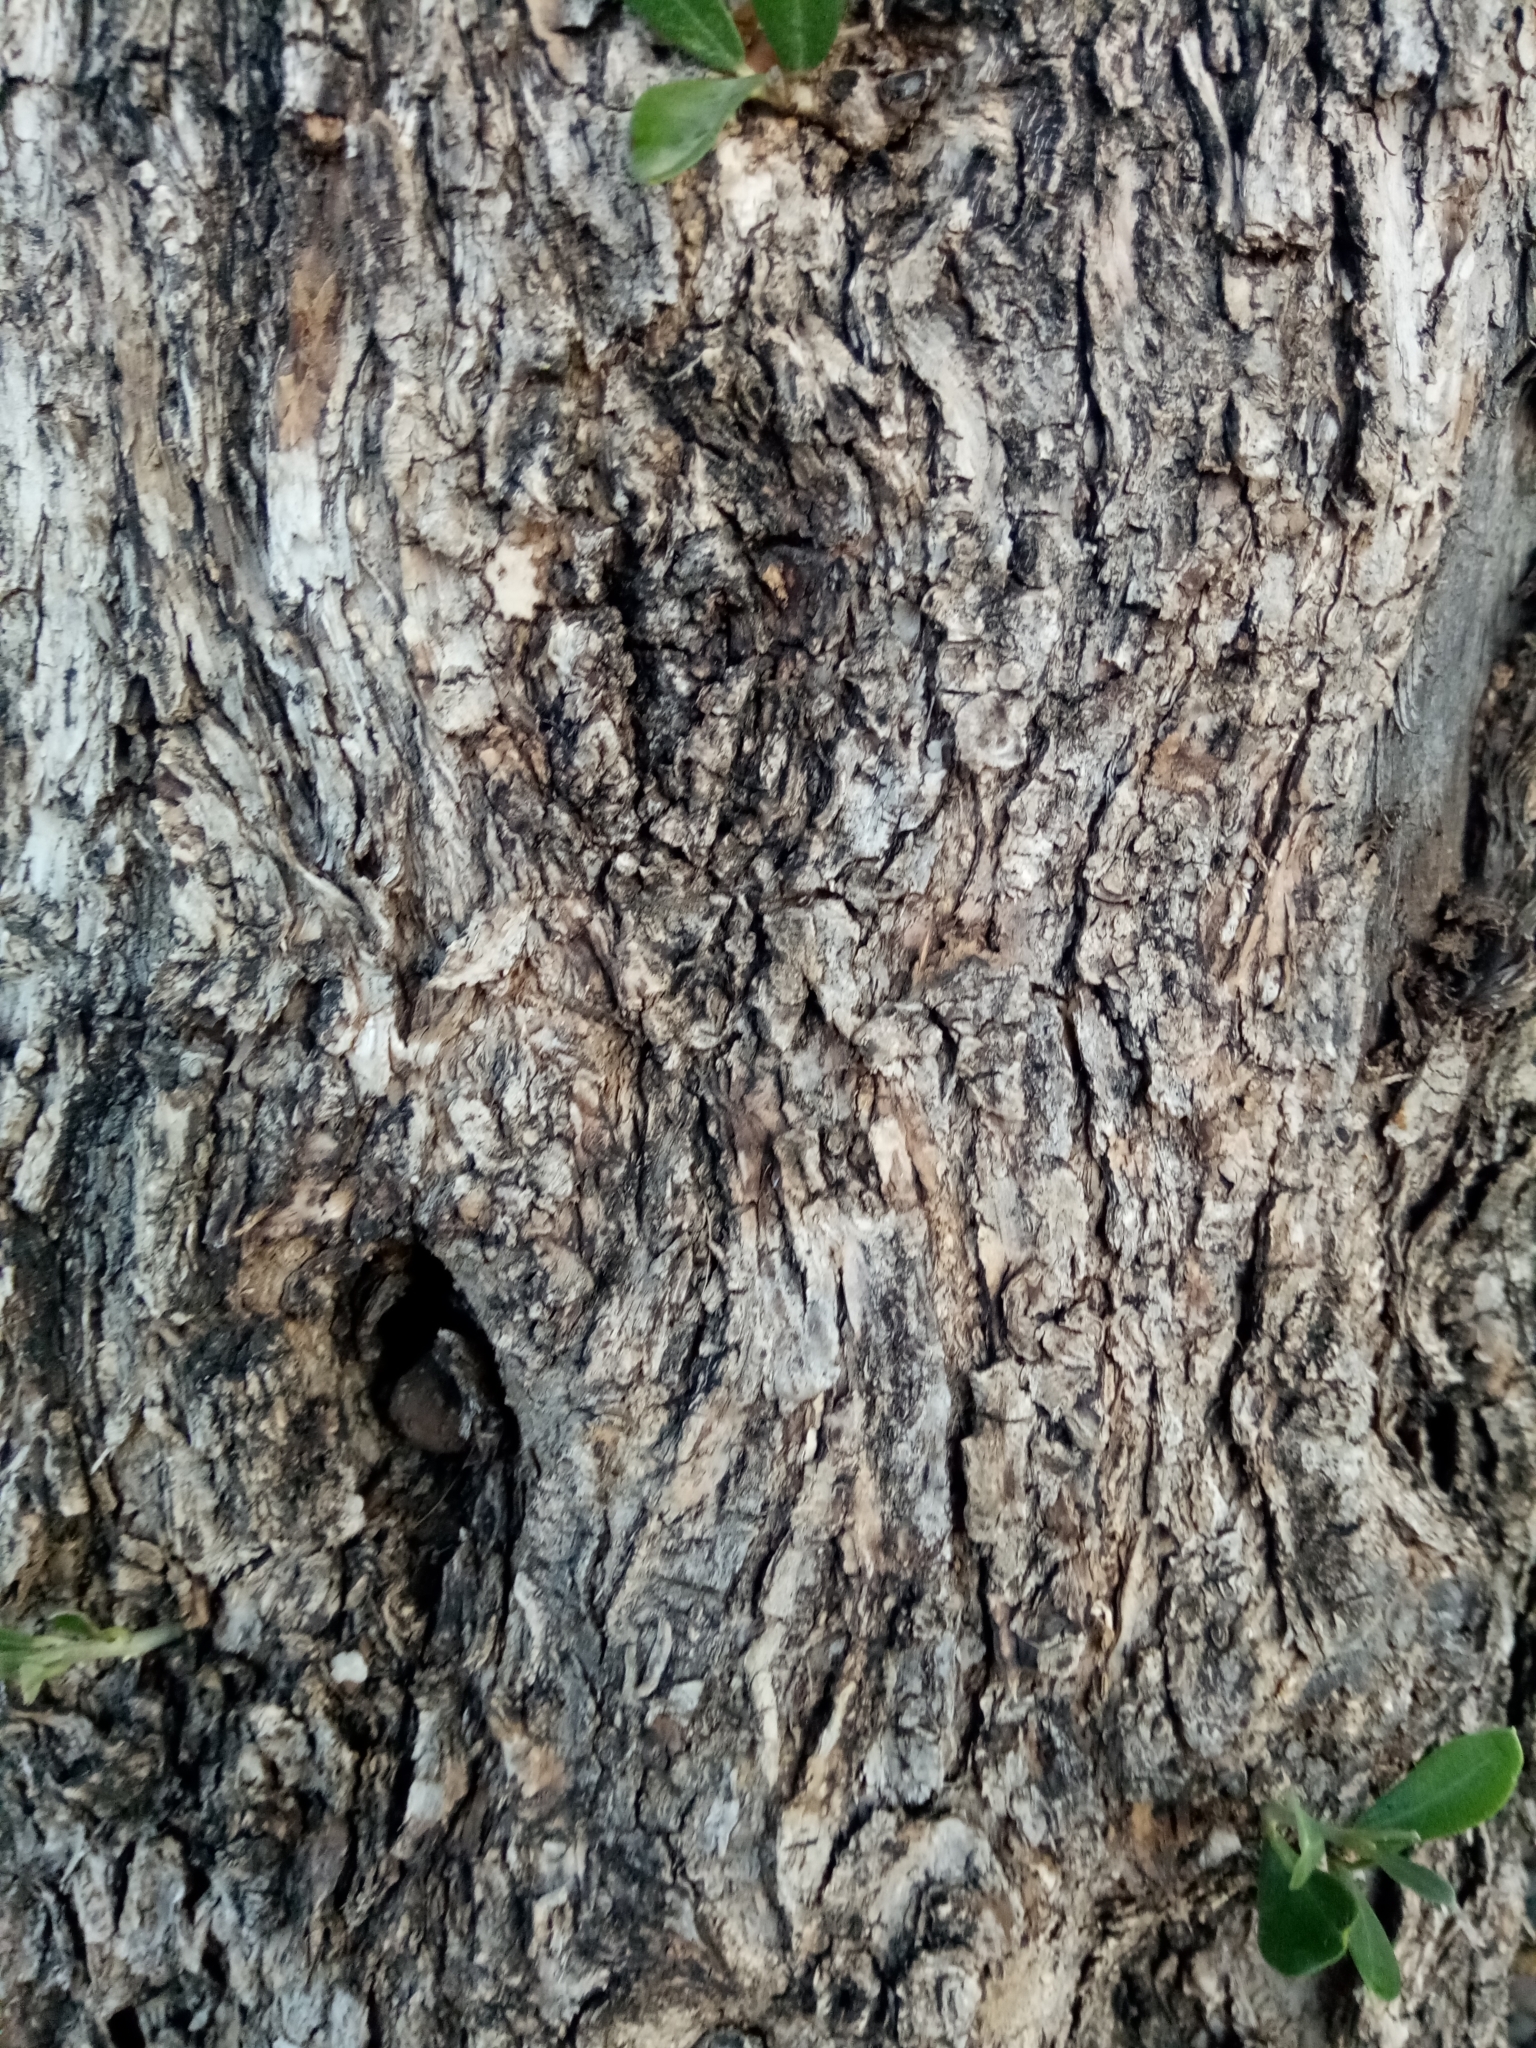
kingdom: Plantae
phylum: Tracheophyta
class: Magnoliopsida
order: Lamiales
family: Oleaceae
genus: Olea
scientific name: Olea europaea
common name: Olive
